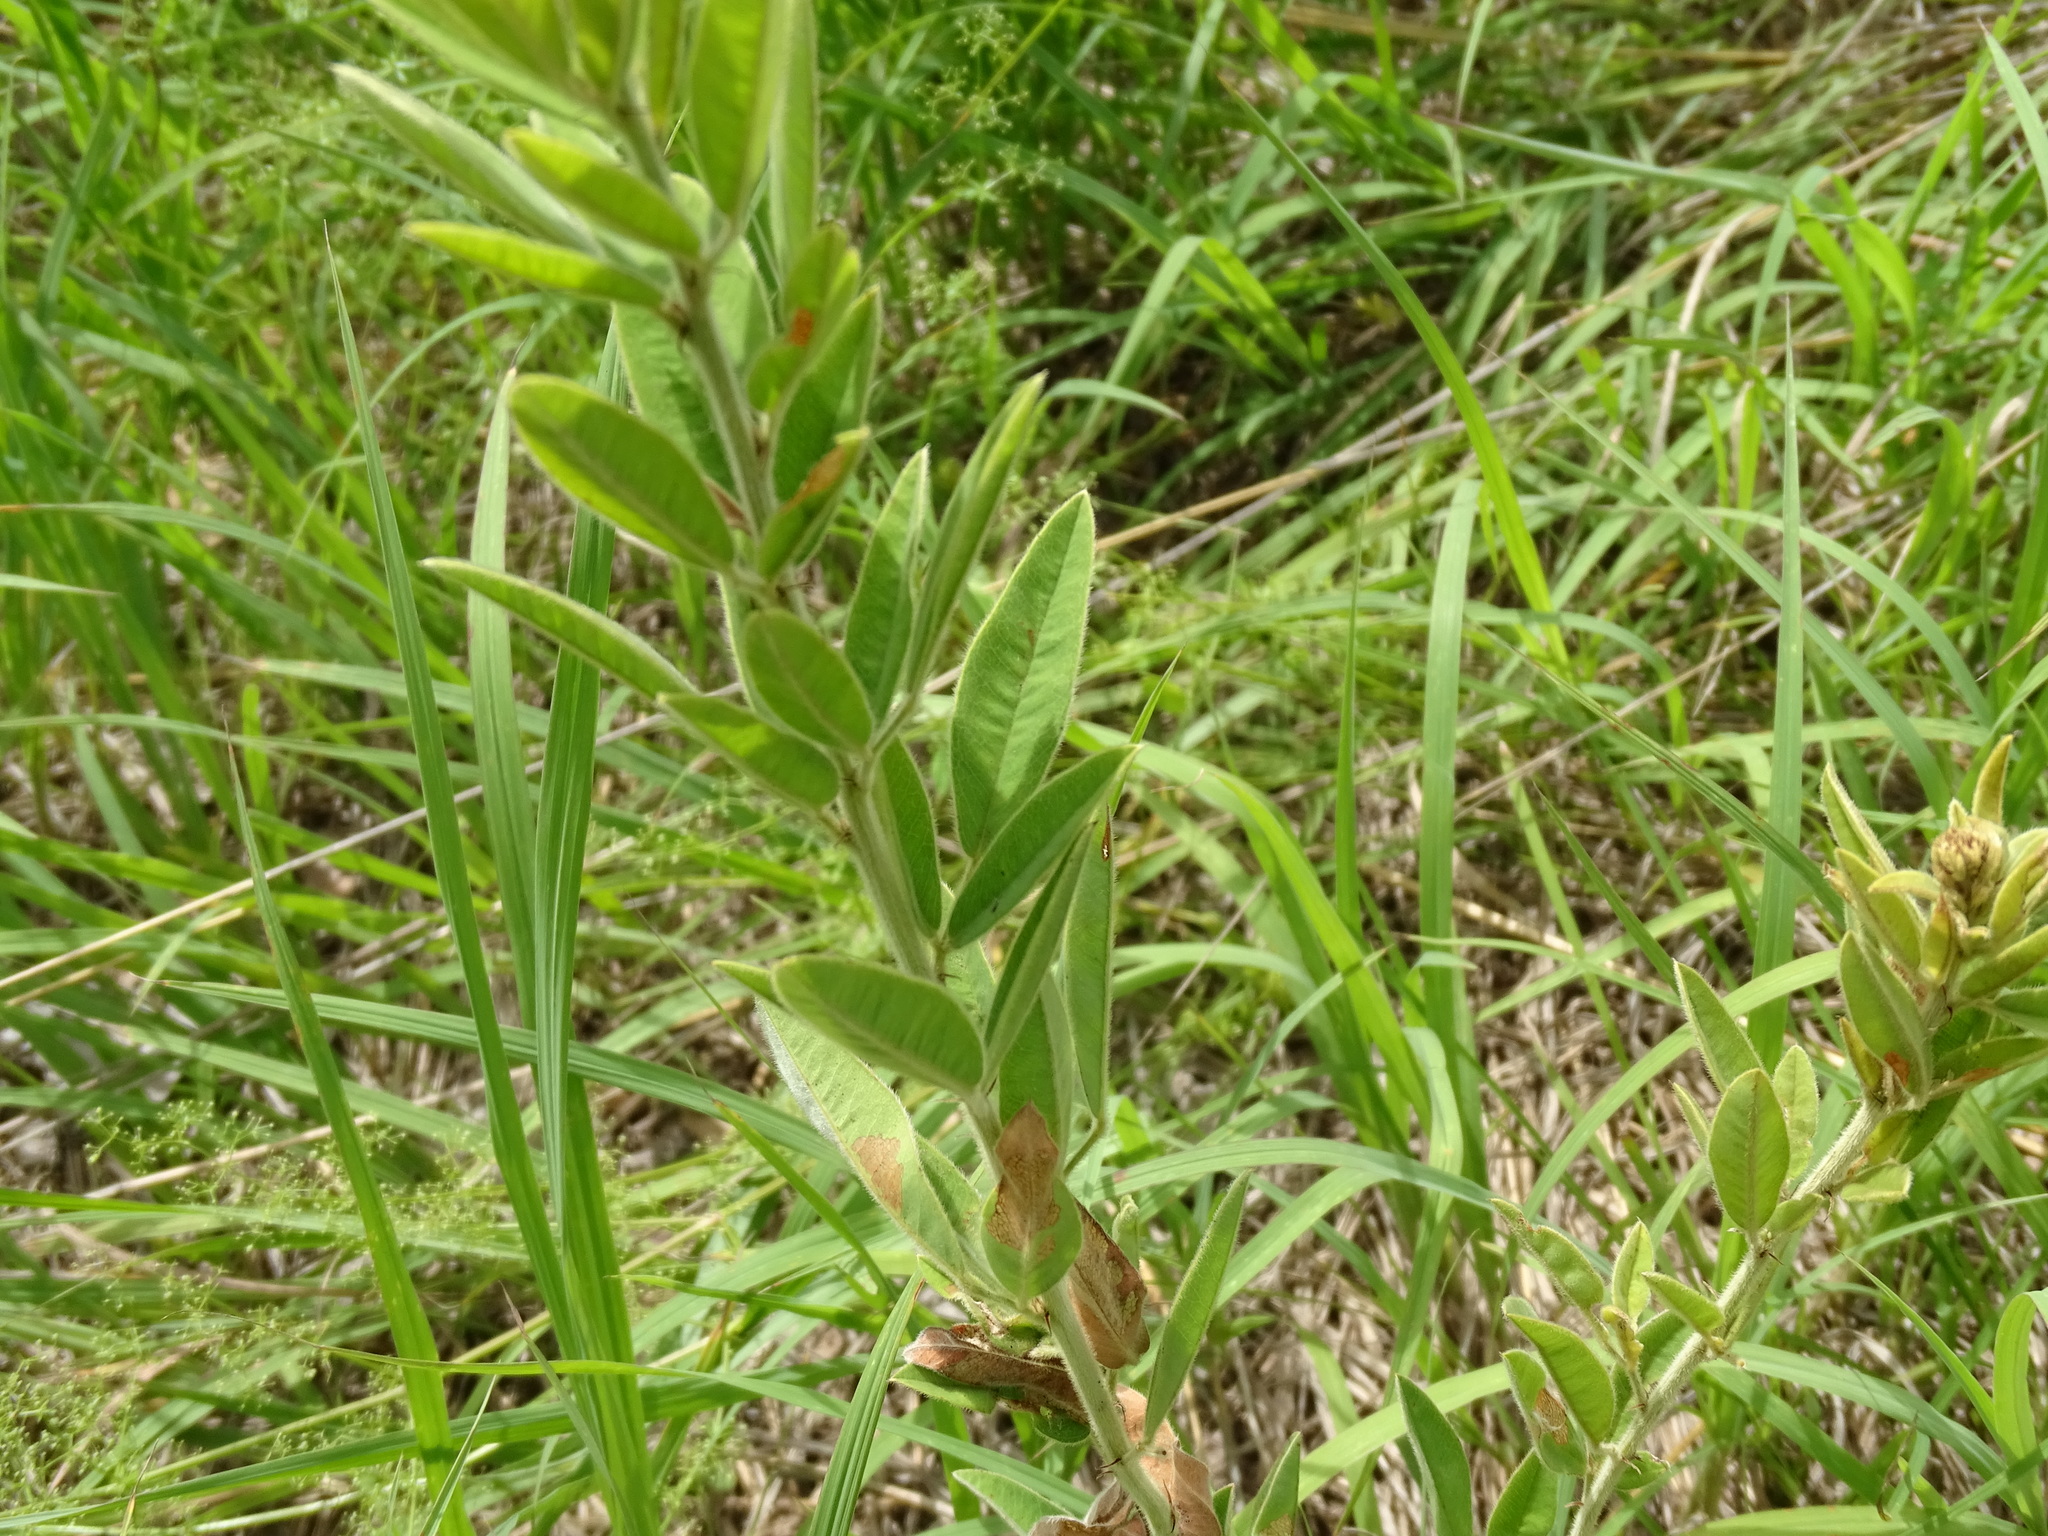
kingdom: Plantae
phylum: Tracheophyta
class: Magnoliopsida
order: Fabales
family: Fabaceae
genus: Lespedeza
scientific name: Lespedeza capitata
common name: Dusty clover
